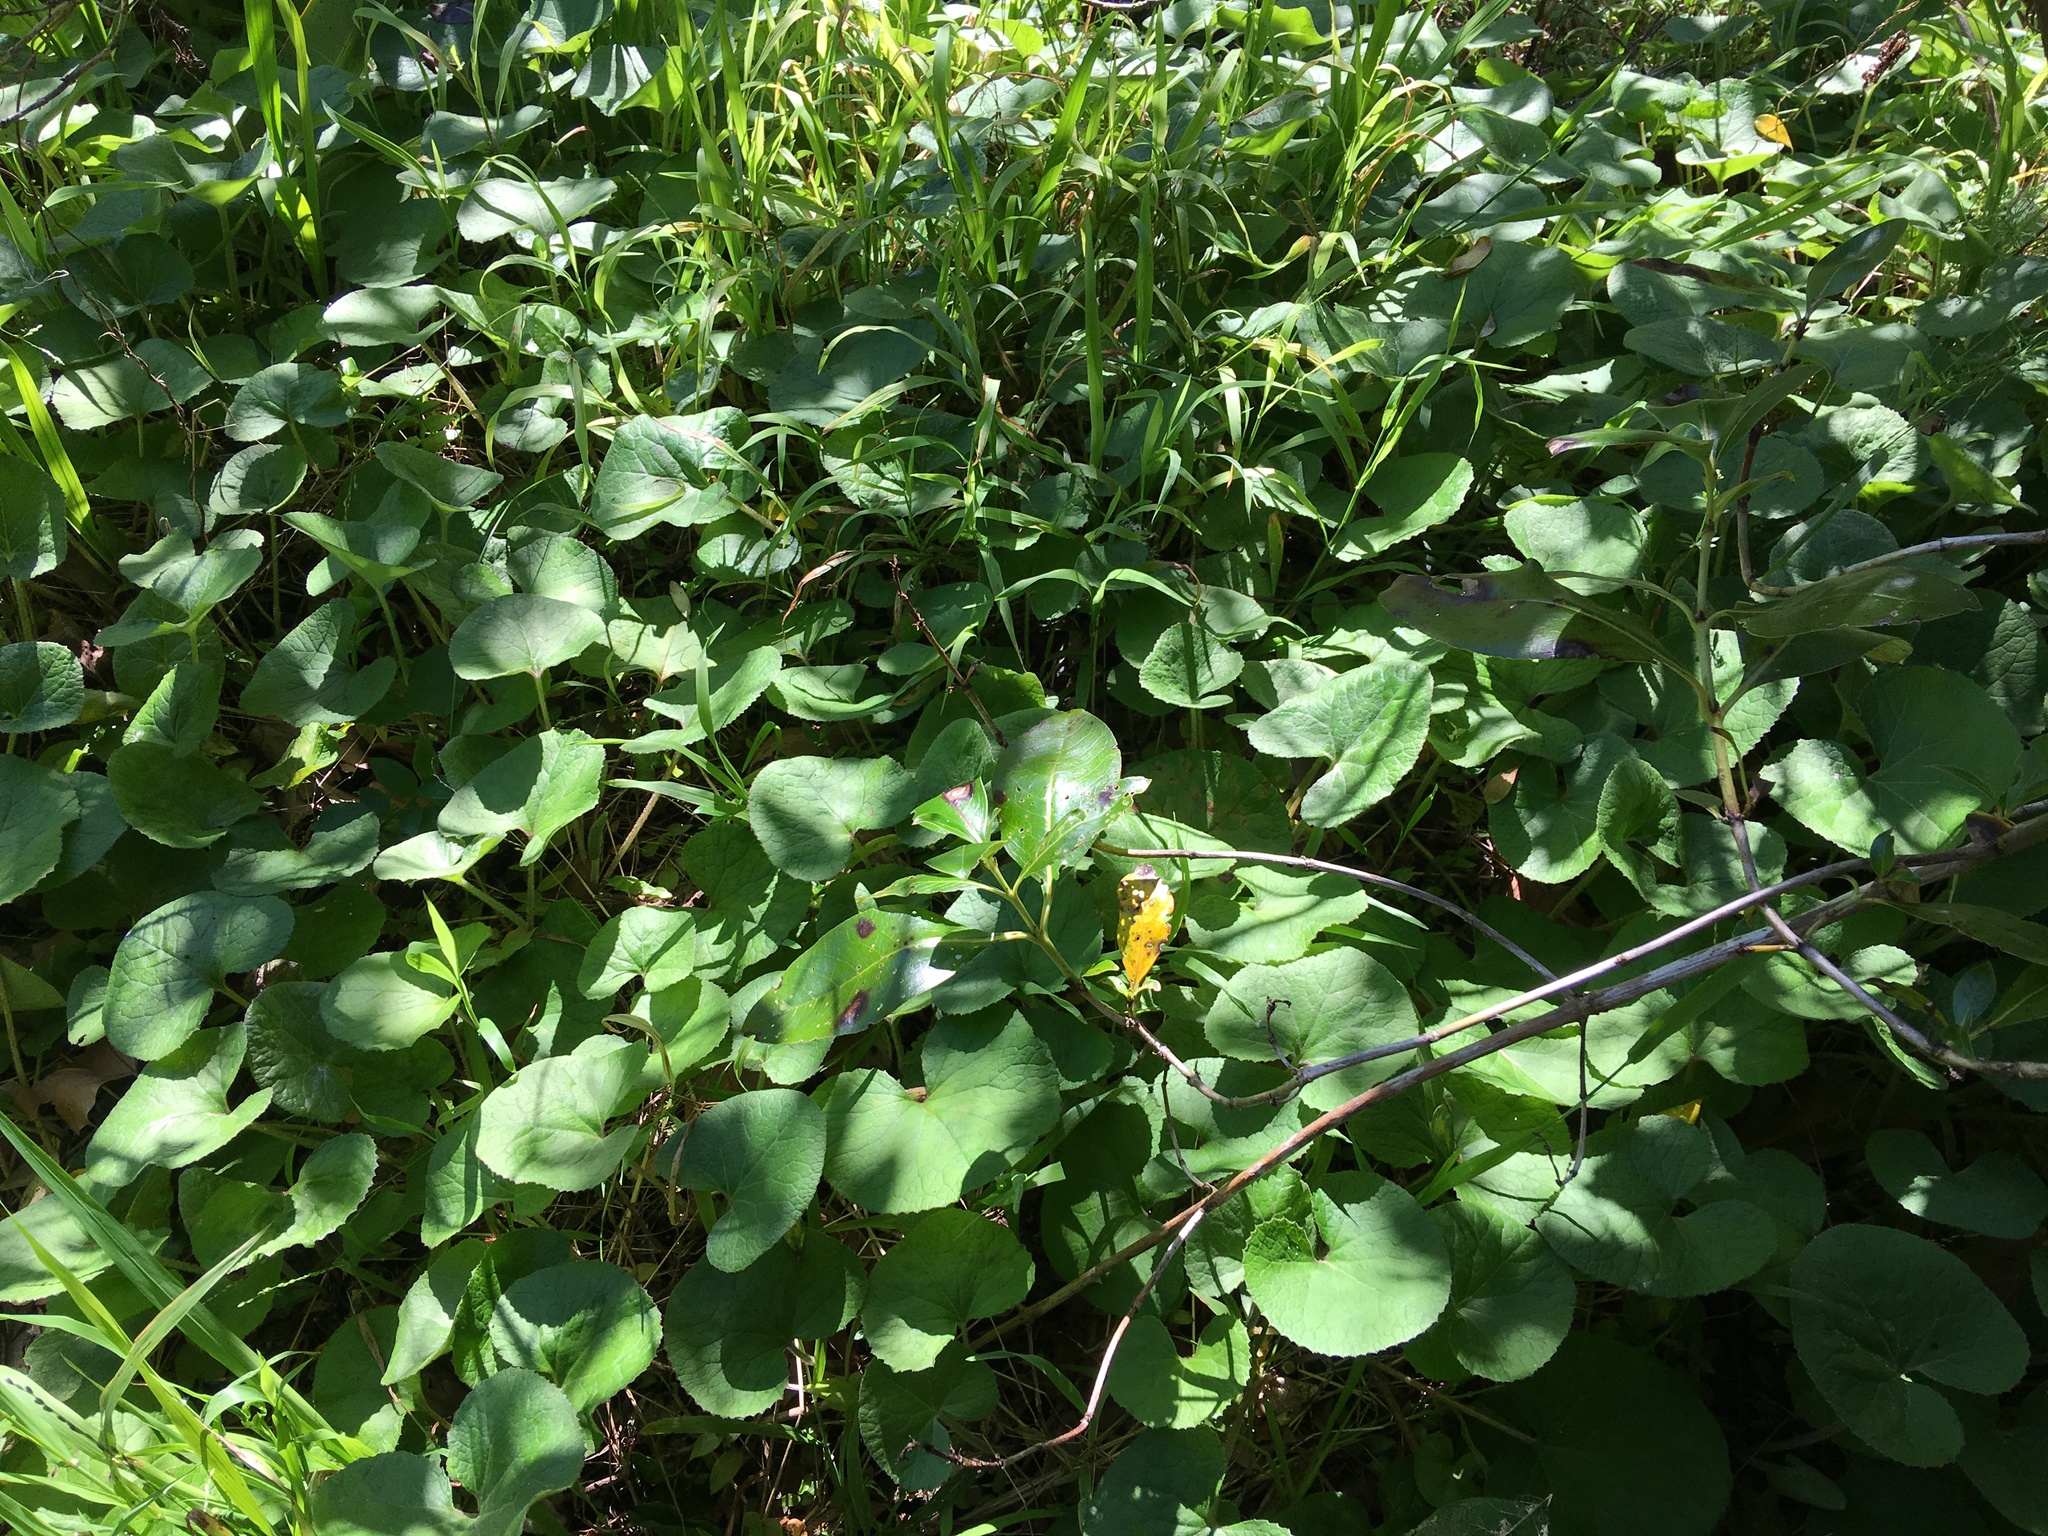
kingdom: Plantae
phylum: Tracheophyta
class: Magnoliopsida
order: Asterales
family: Asteraceae
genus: Petasites
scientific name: Petasites pyrenaicus
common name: Winter heliotrope
